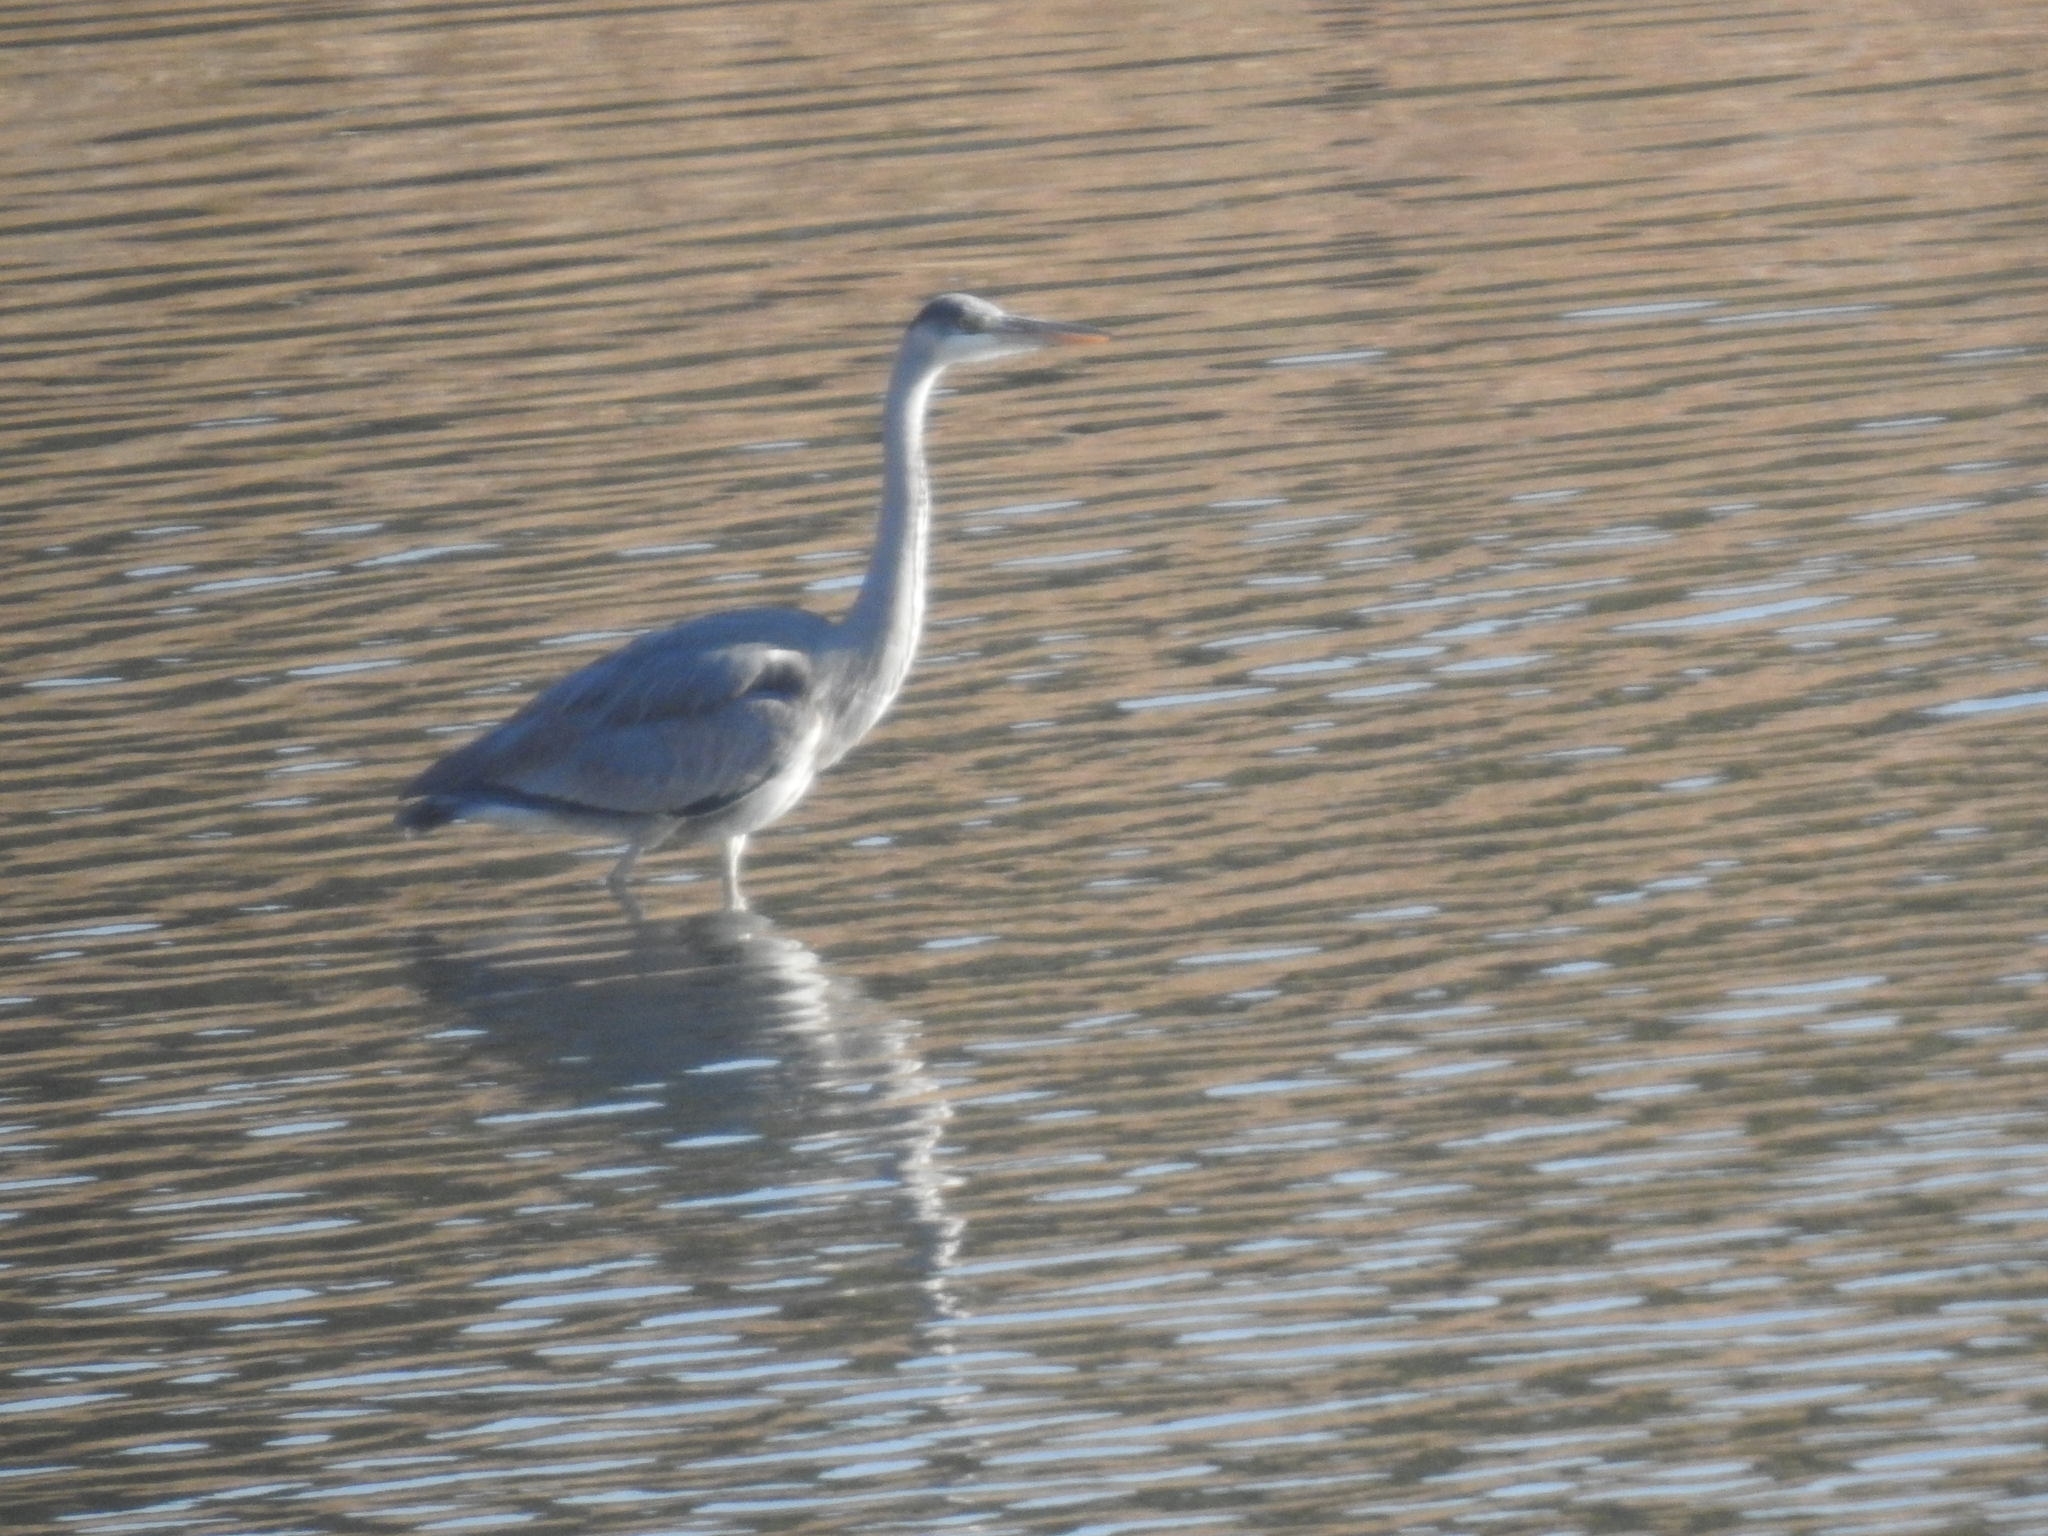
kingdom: Animalia
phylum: Chordata
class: Aves
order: Pelecaniformes
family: Ardeidae
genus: Ardea
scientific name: Ardea cinerea
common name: Grey heron
